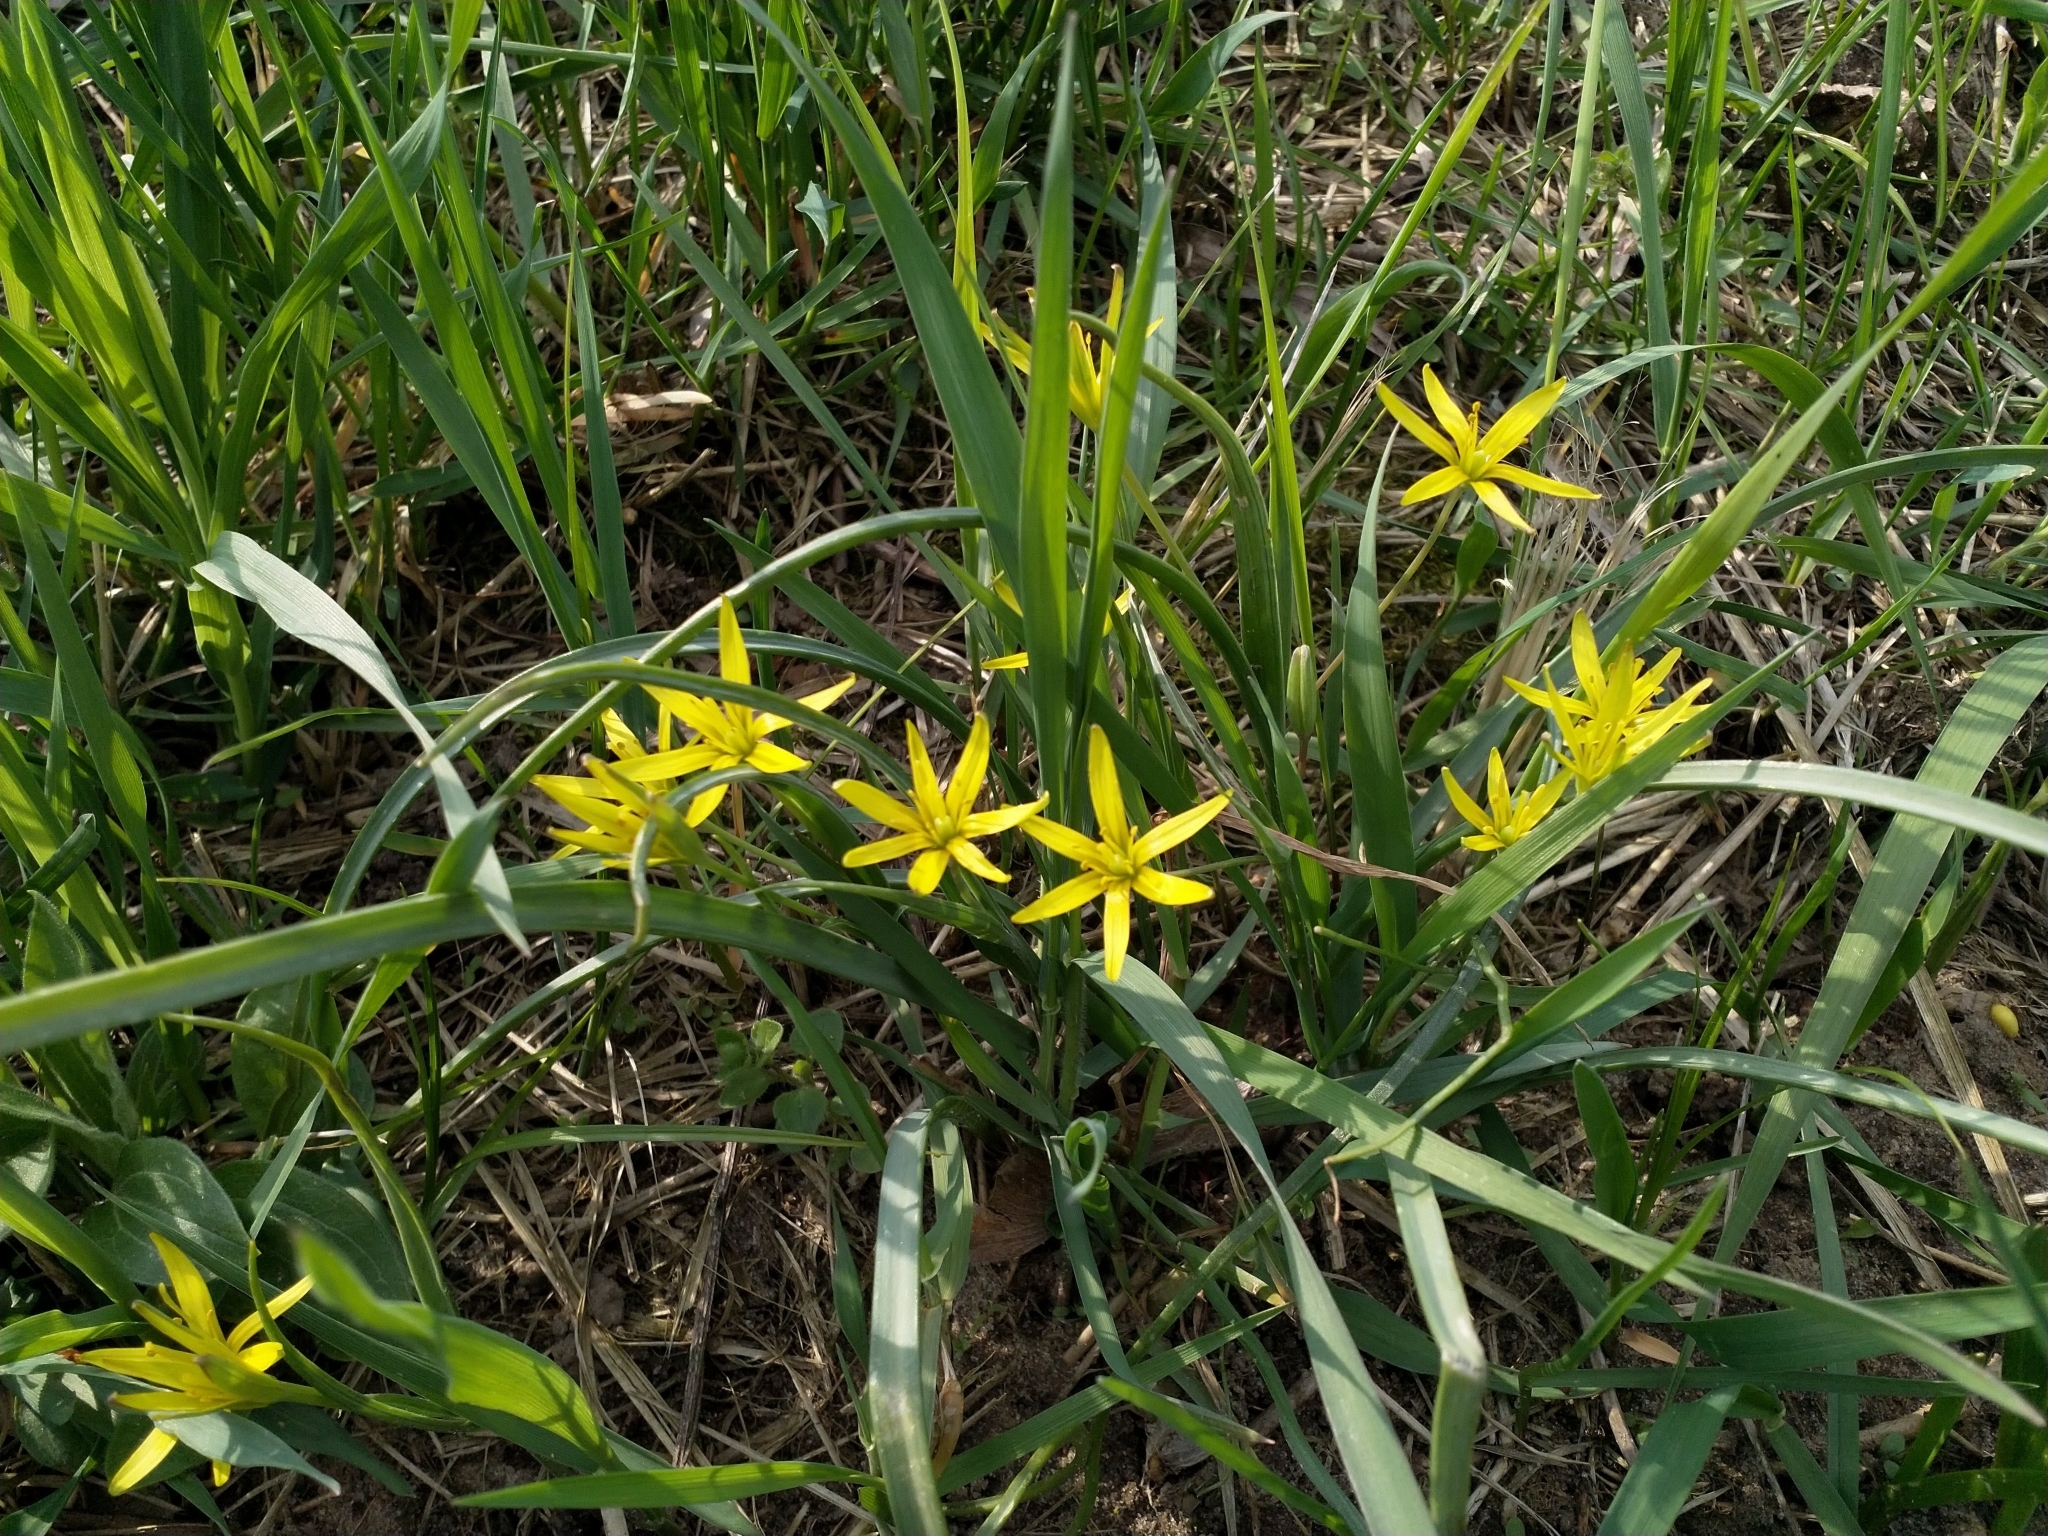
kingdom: Plantae
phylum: Tracheophyta
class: Liliopsida
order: Liliales
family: Liliaceae
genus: Gagea
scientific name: Gagea pratensis
